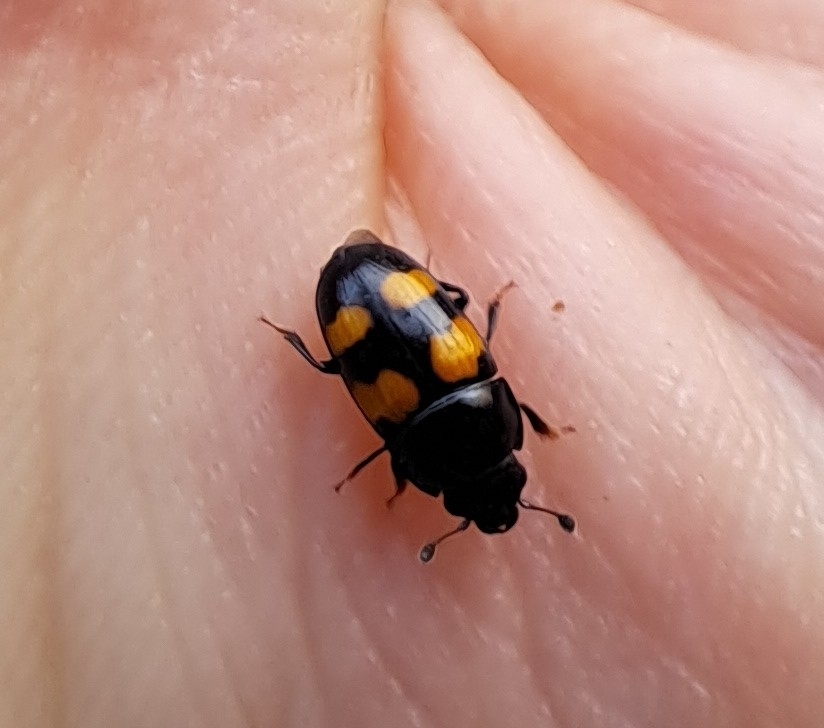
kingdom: Animalia
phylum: Arthropoda
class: Insecta
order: Coleoptera
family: Nitidulidae
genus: Glischrochilus
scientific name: Glischrochilus grandis
